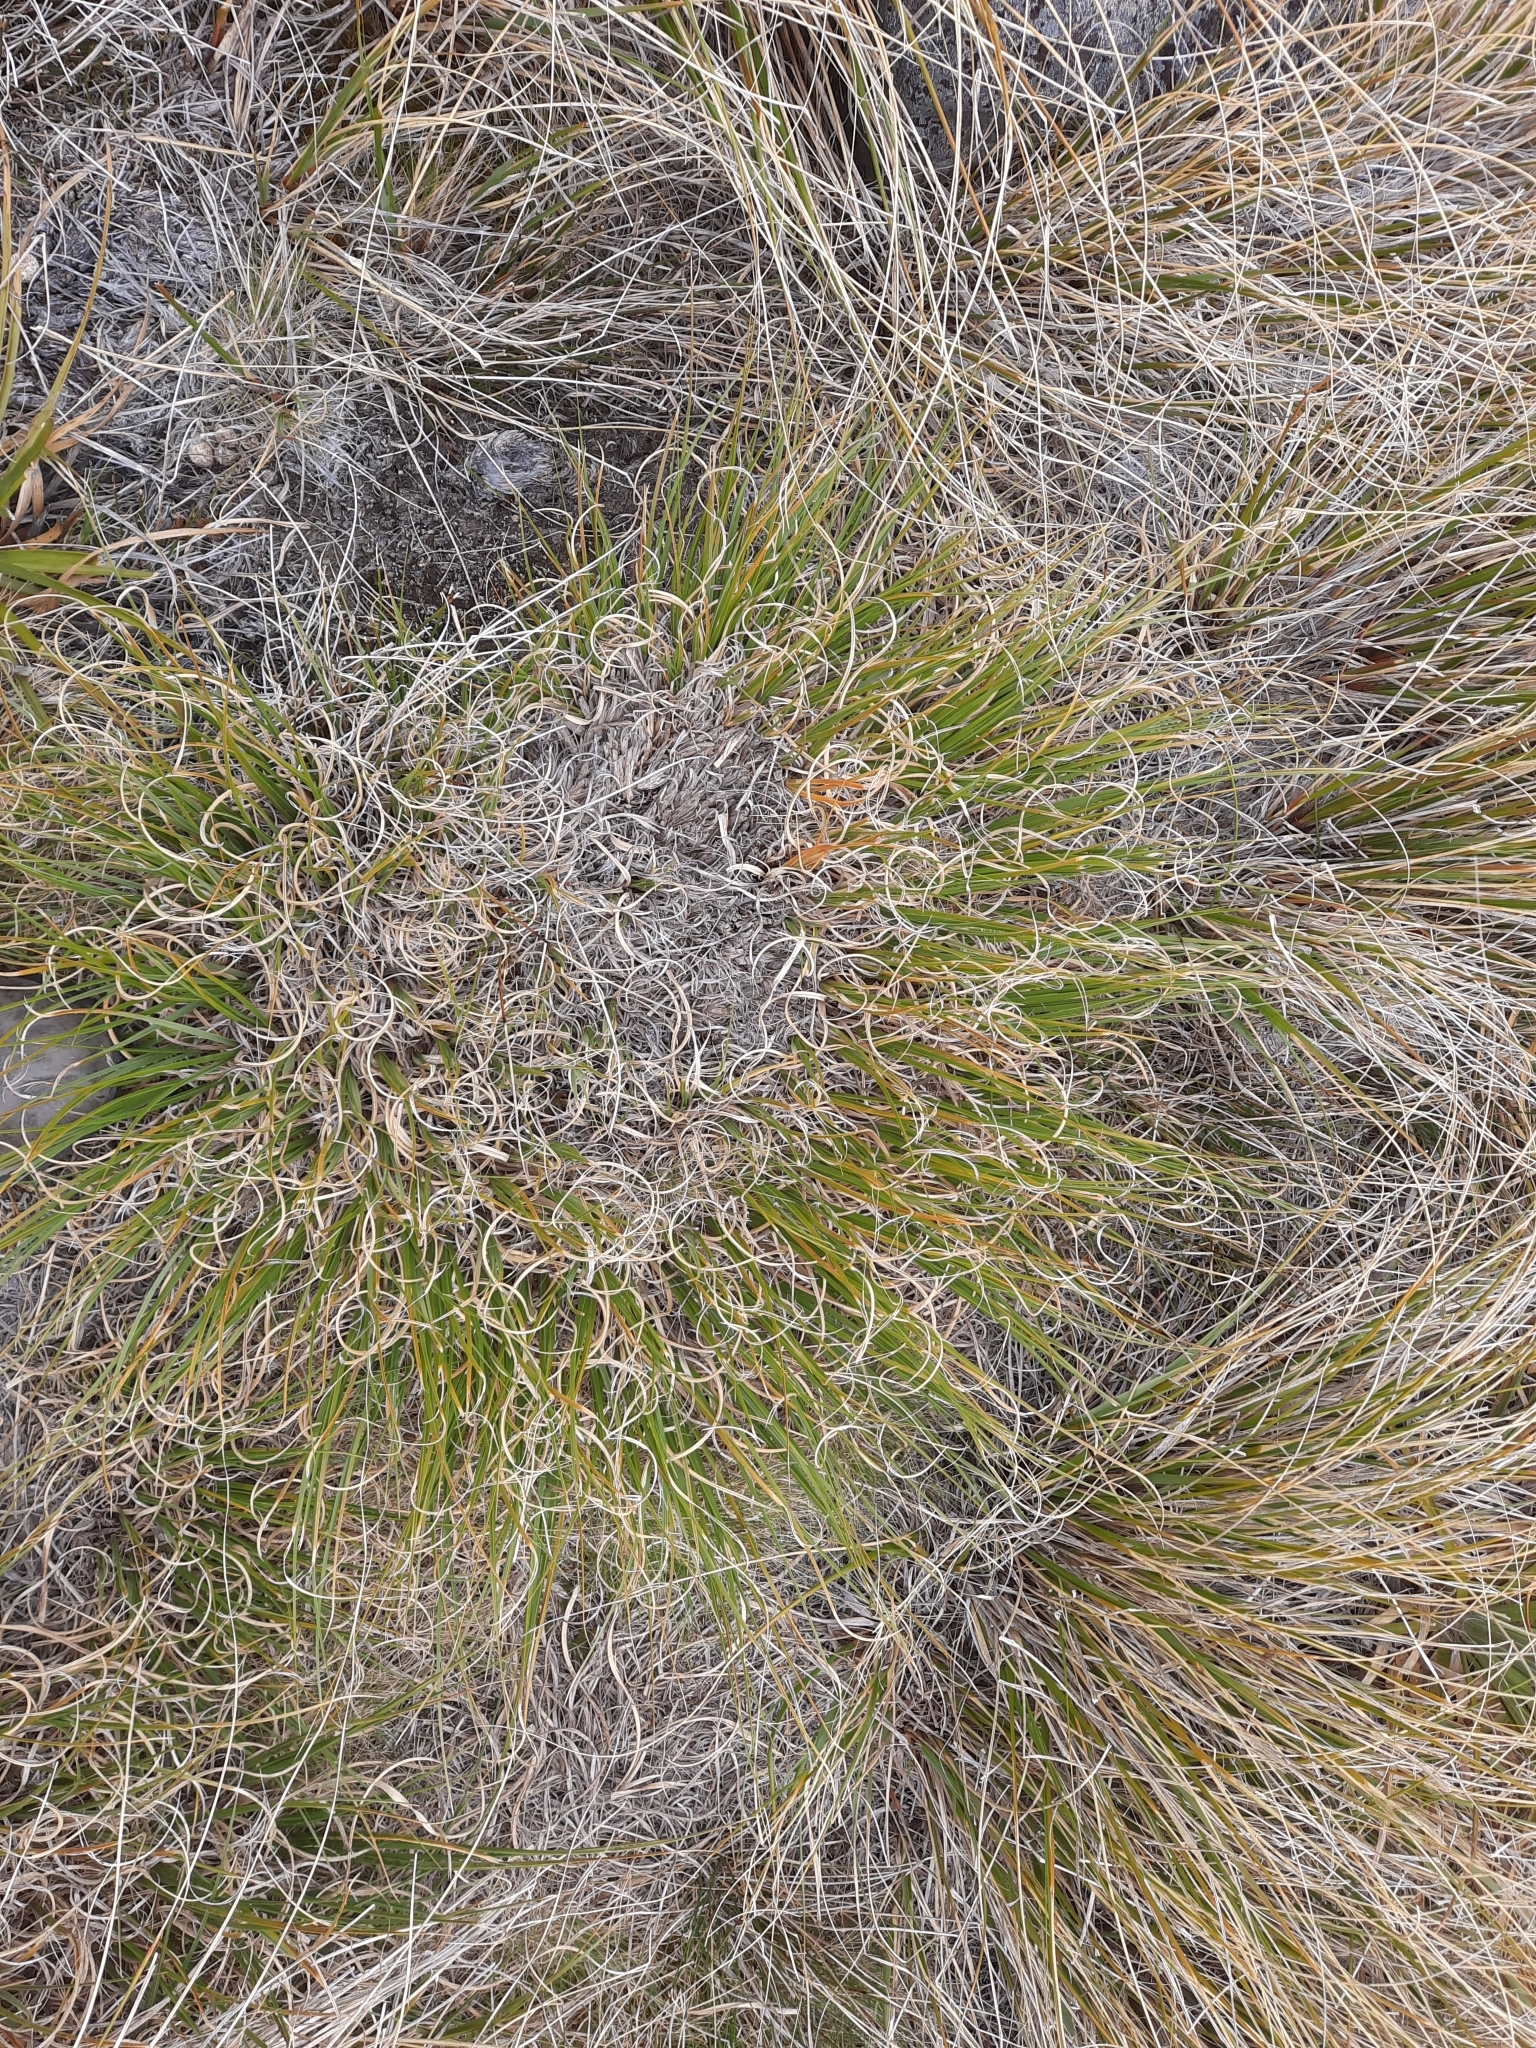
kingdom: Plantae
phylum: Tracheophyta
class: Liliopsida
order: Poales
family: Poaceae
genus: Chionochloa
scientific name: Chionochloa crassiuscula
